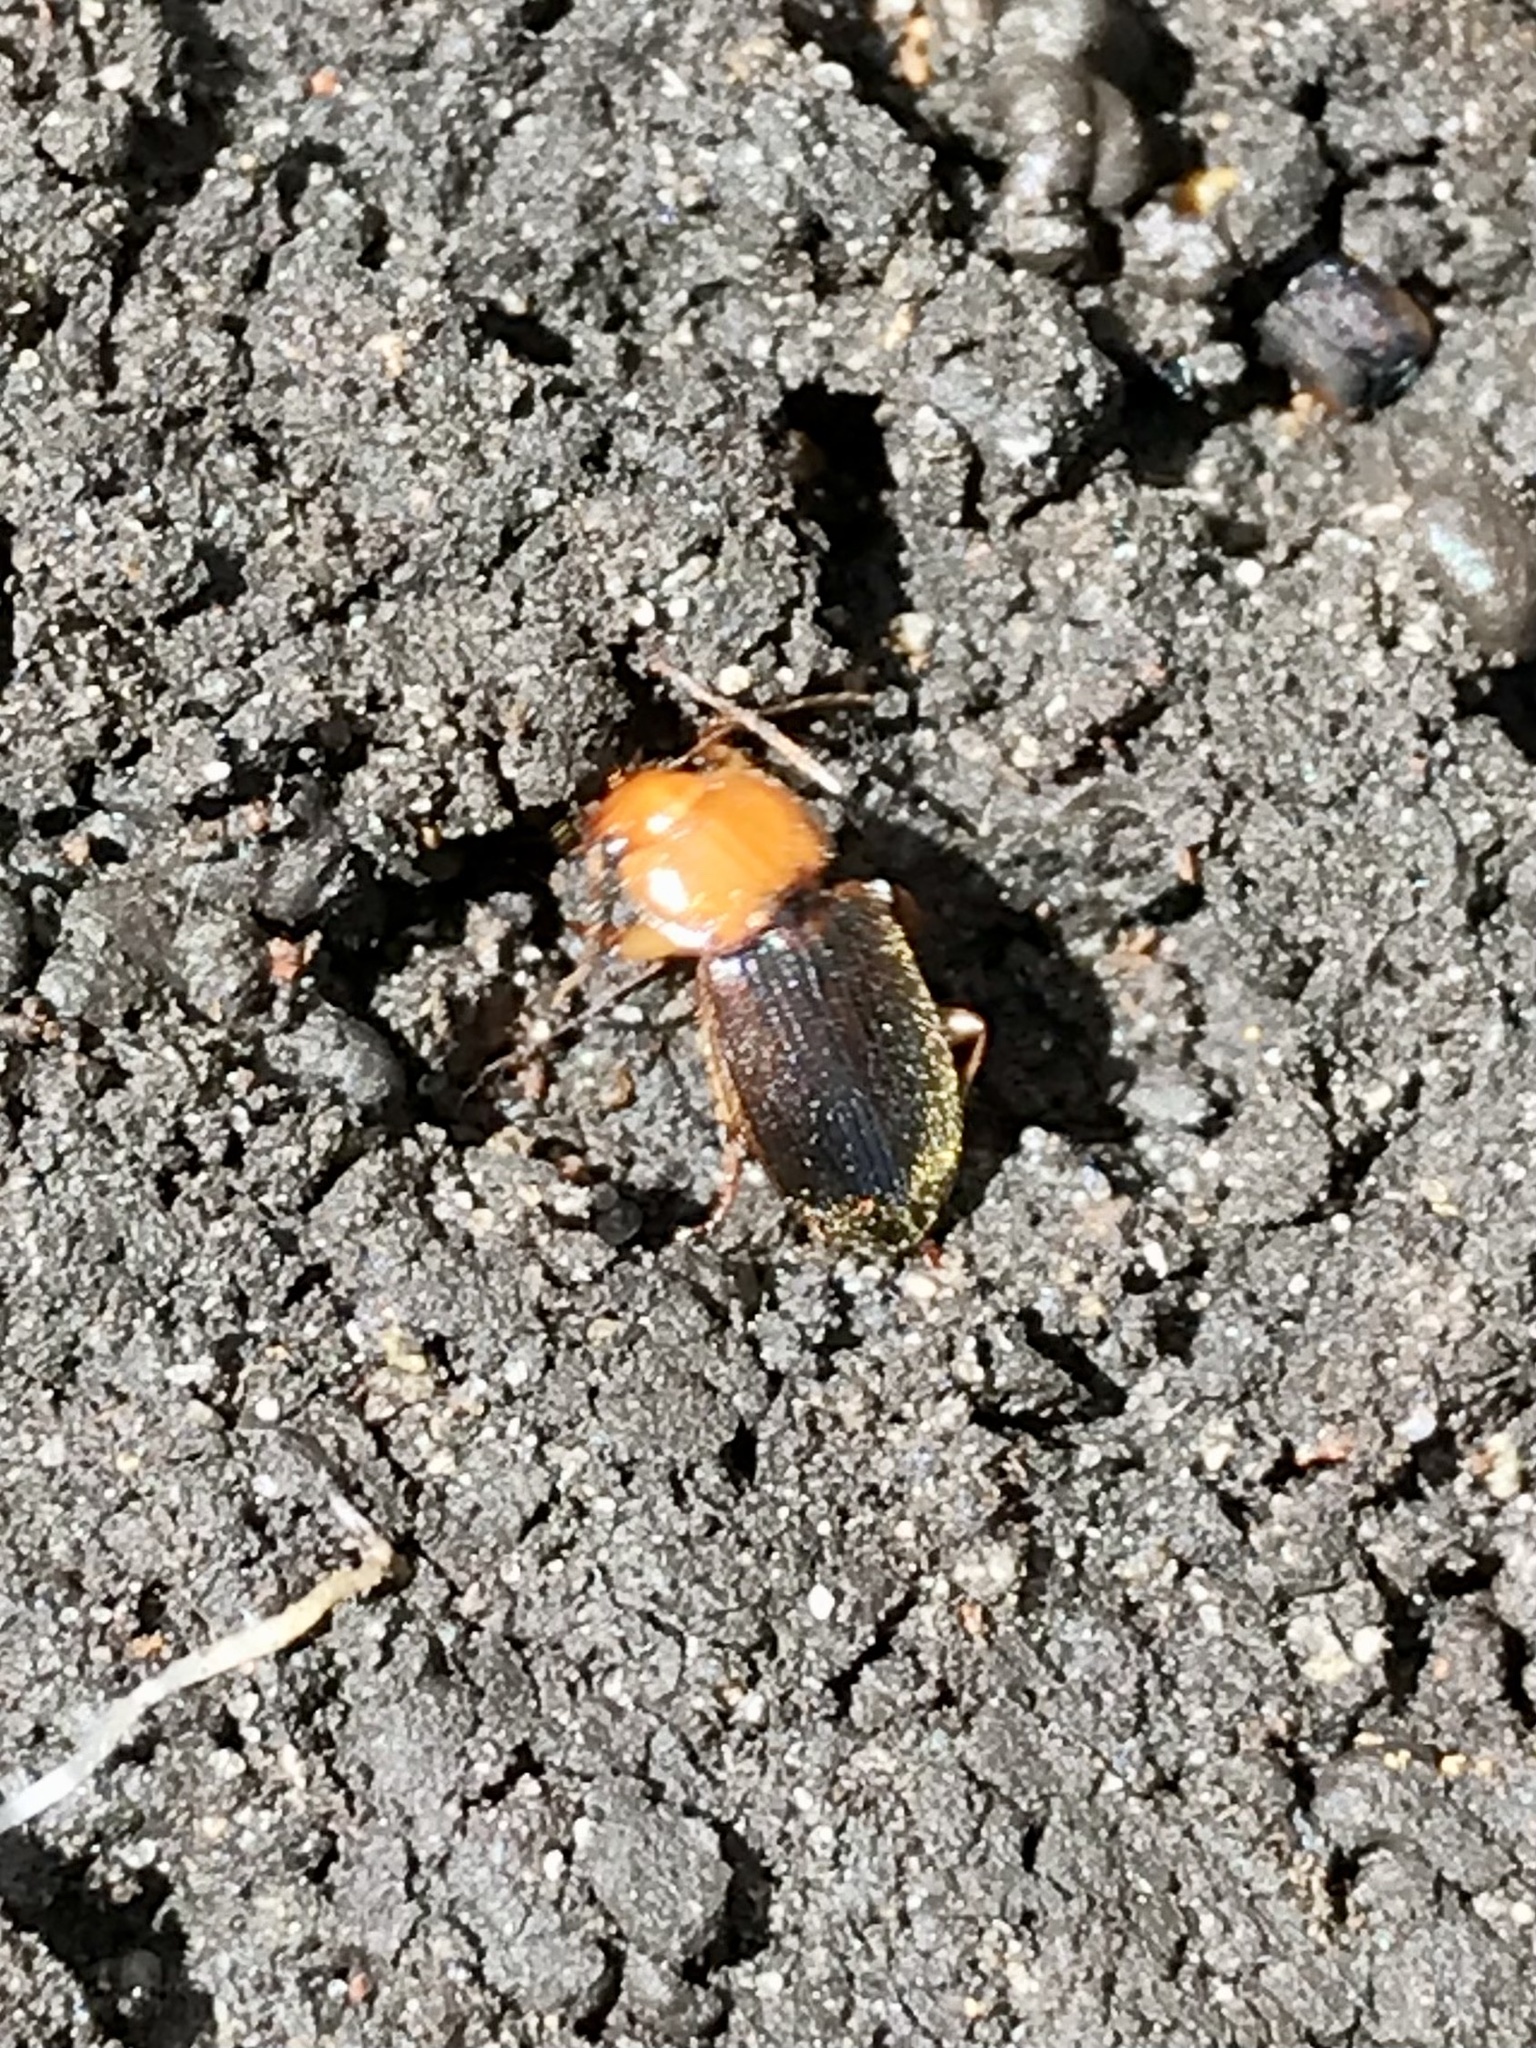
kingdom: Animalia
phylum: Arthropoda
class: Insecta
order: Coleoptera
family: Carabidae
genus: Amphasia
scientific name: Amphasia interstitialis
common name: Red-headed ground beetle
